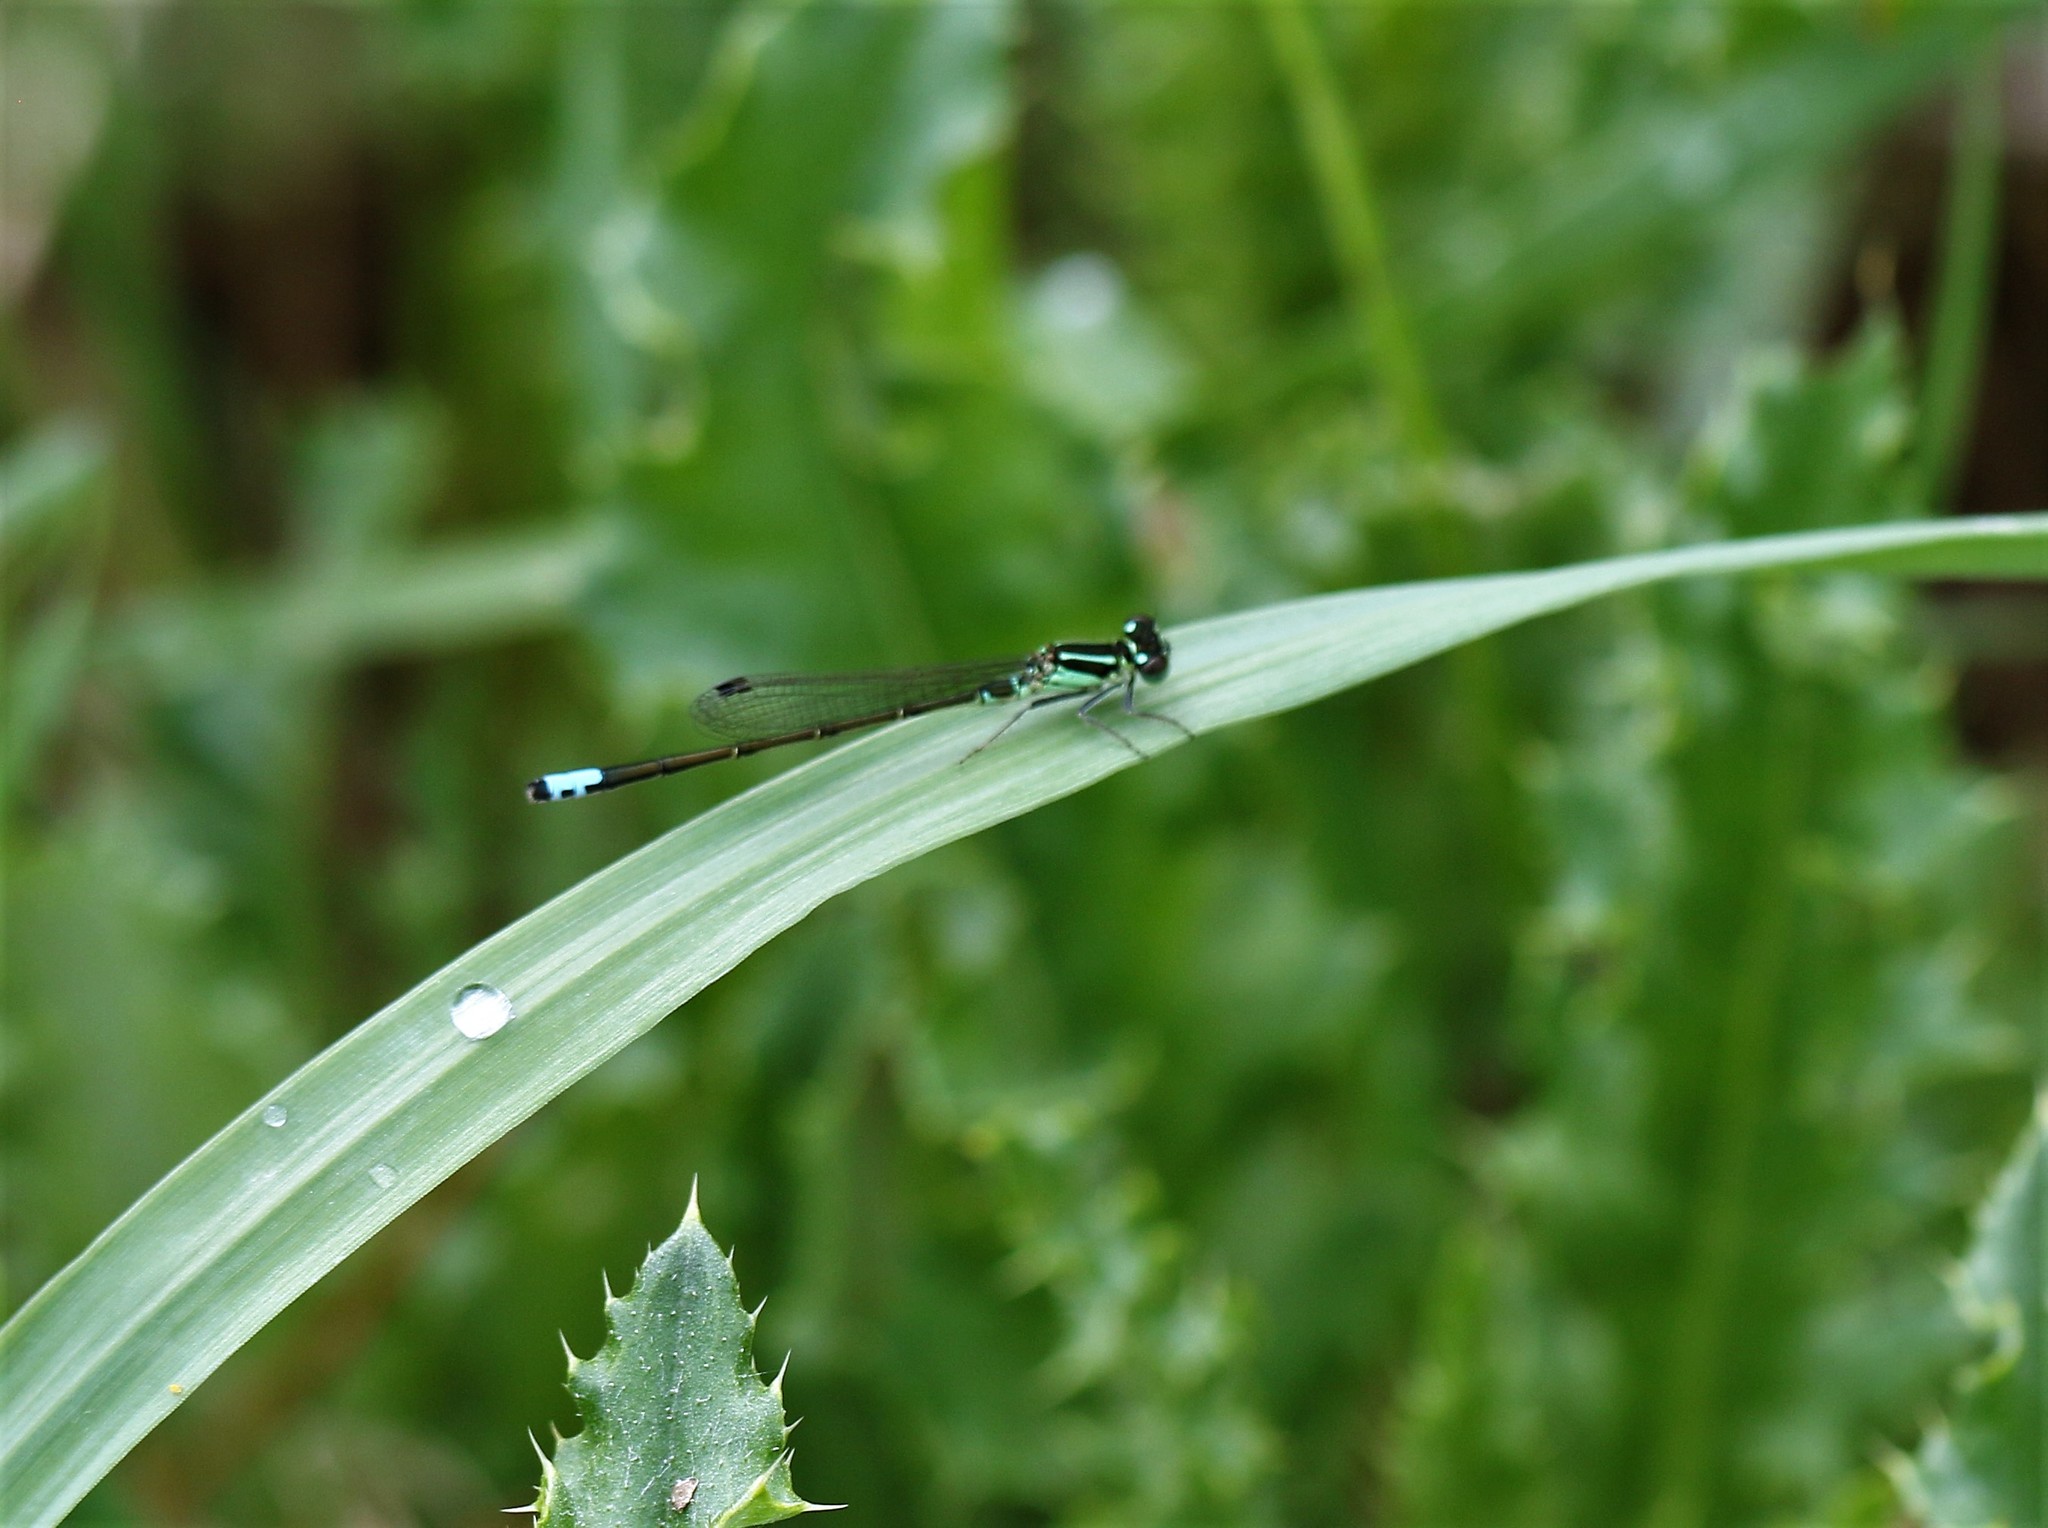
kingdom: Animalia
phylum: Arthropoda
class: Insecta
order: Odonata
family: Coenagrionidae
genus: Ischnura
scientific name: Ischnura verticalis
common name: Eastern forktail
